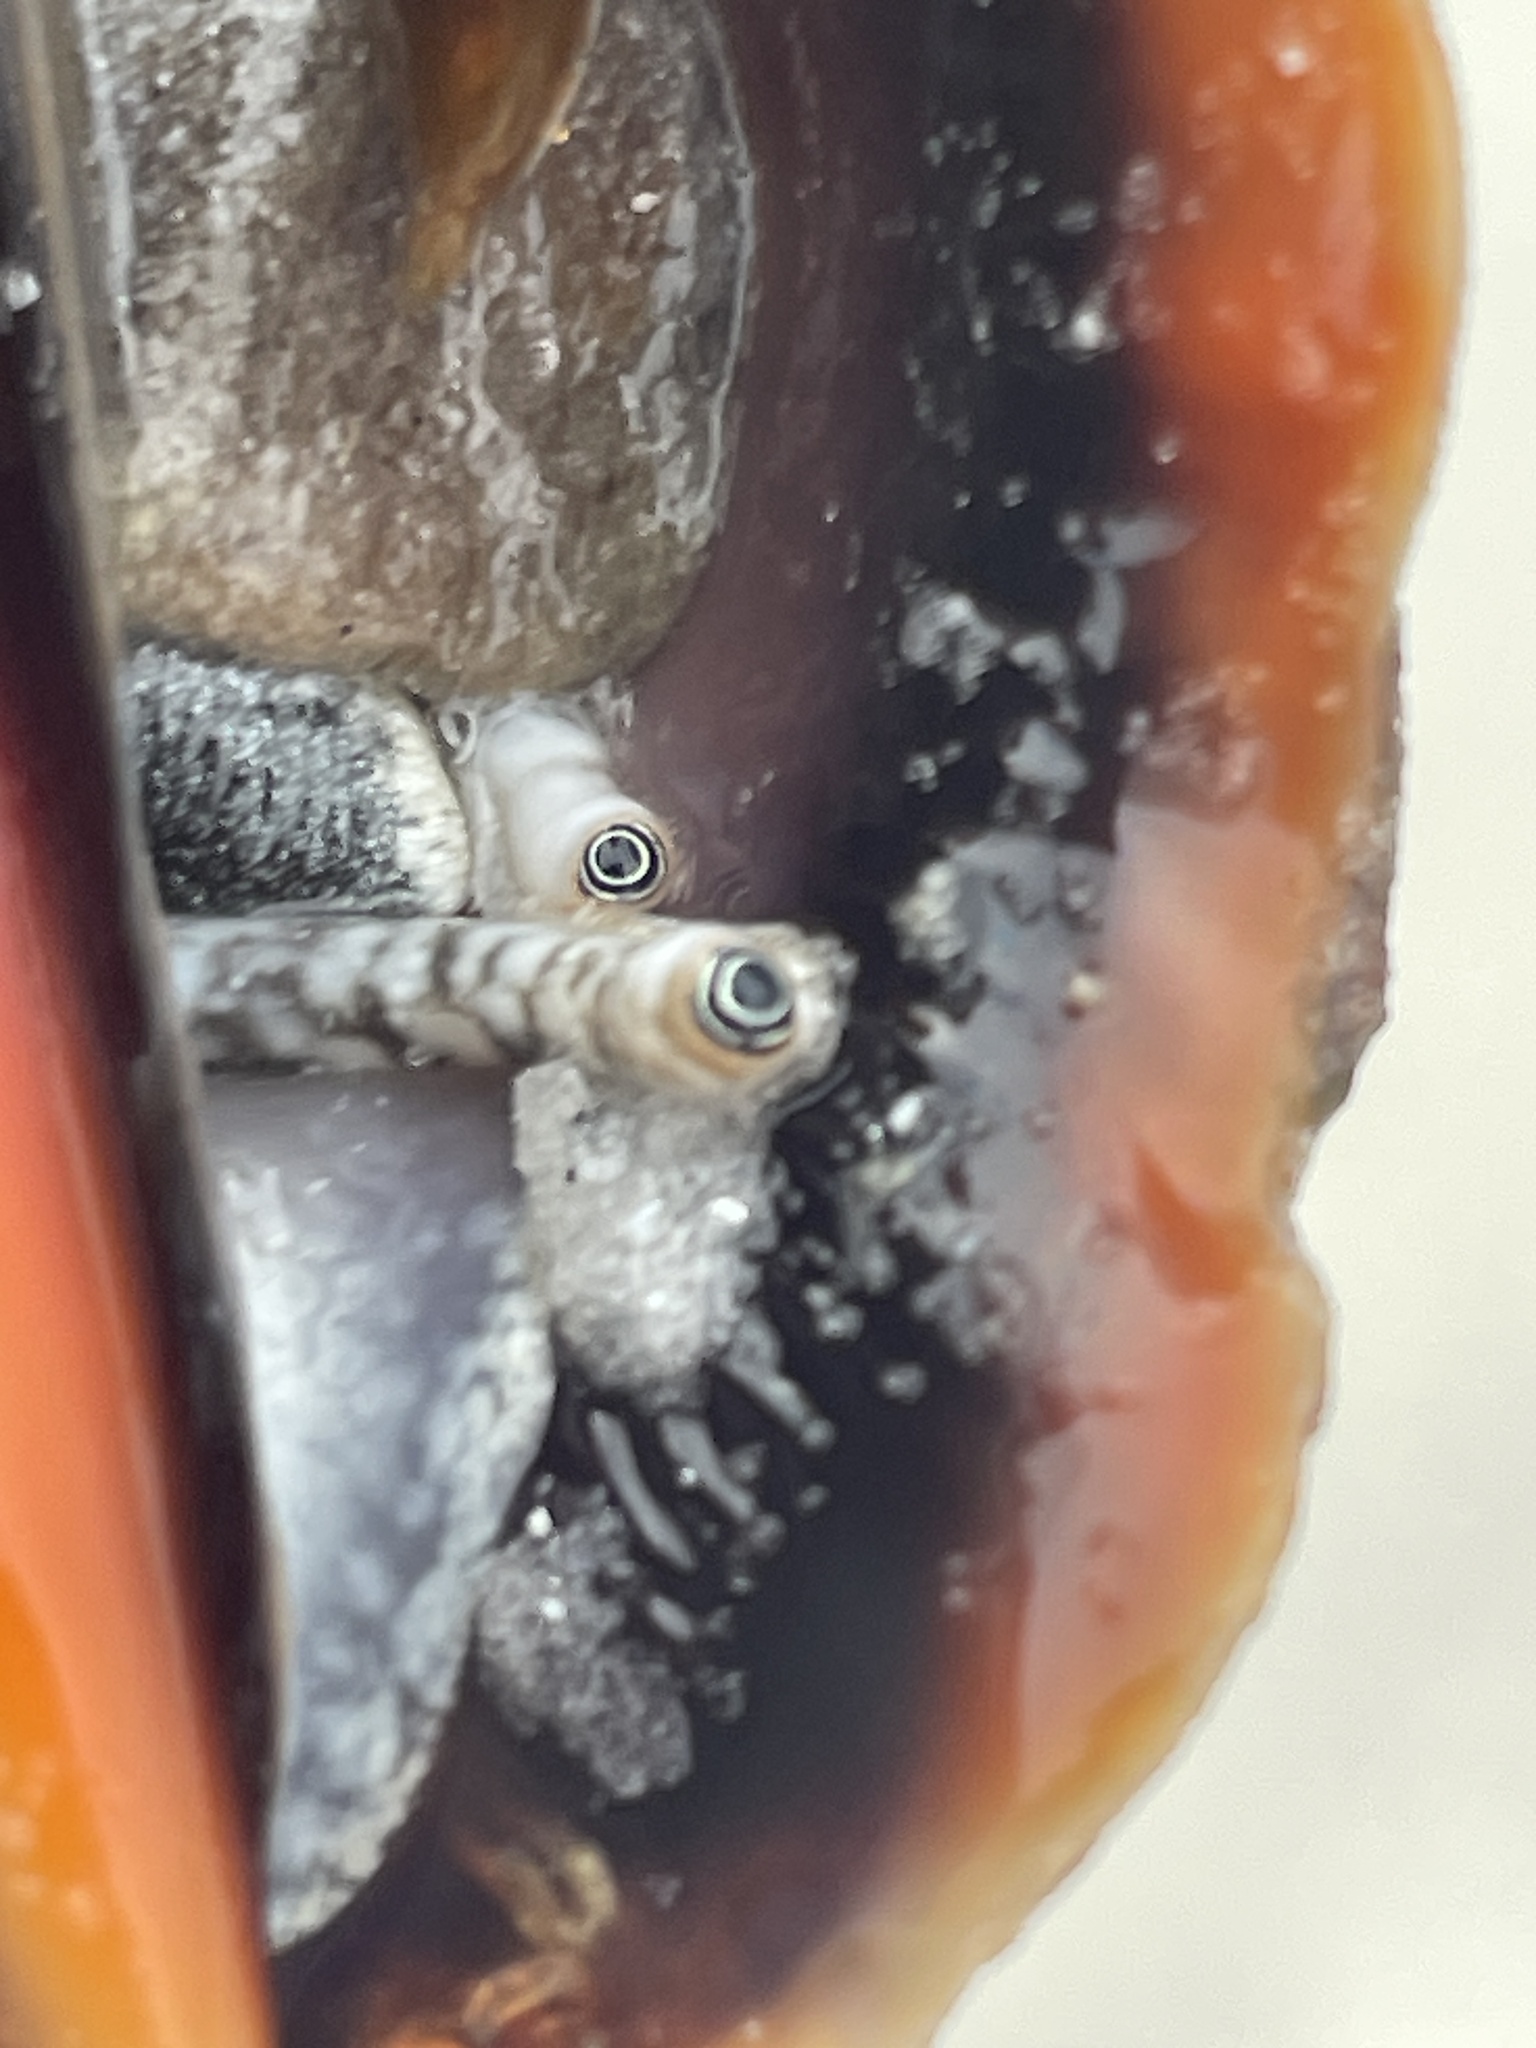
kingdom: Animalia
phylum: Mollusca
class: Gastropoda
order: Littorinimorpha
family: Strombidae
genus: Strombus
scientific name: Strombus alatus
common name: Florida fighting conch
